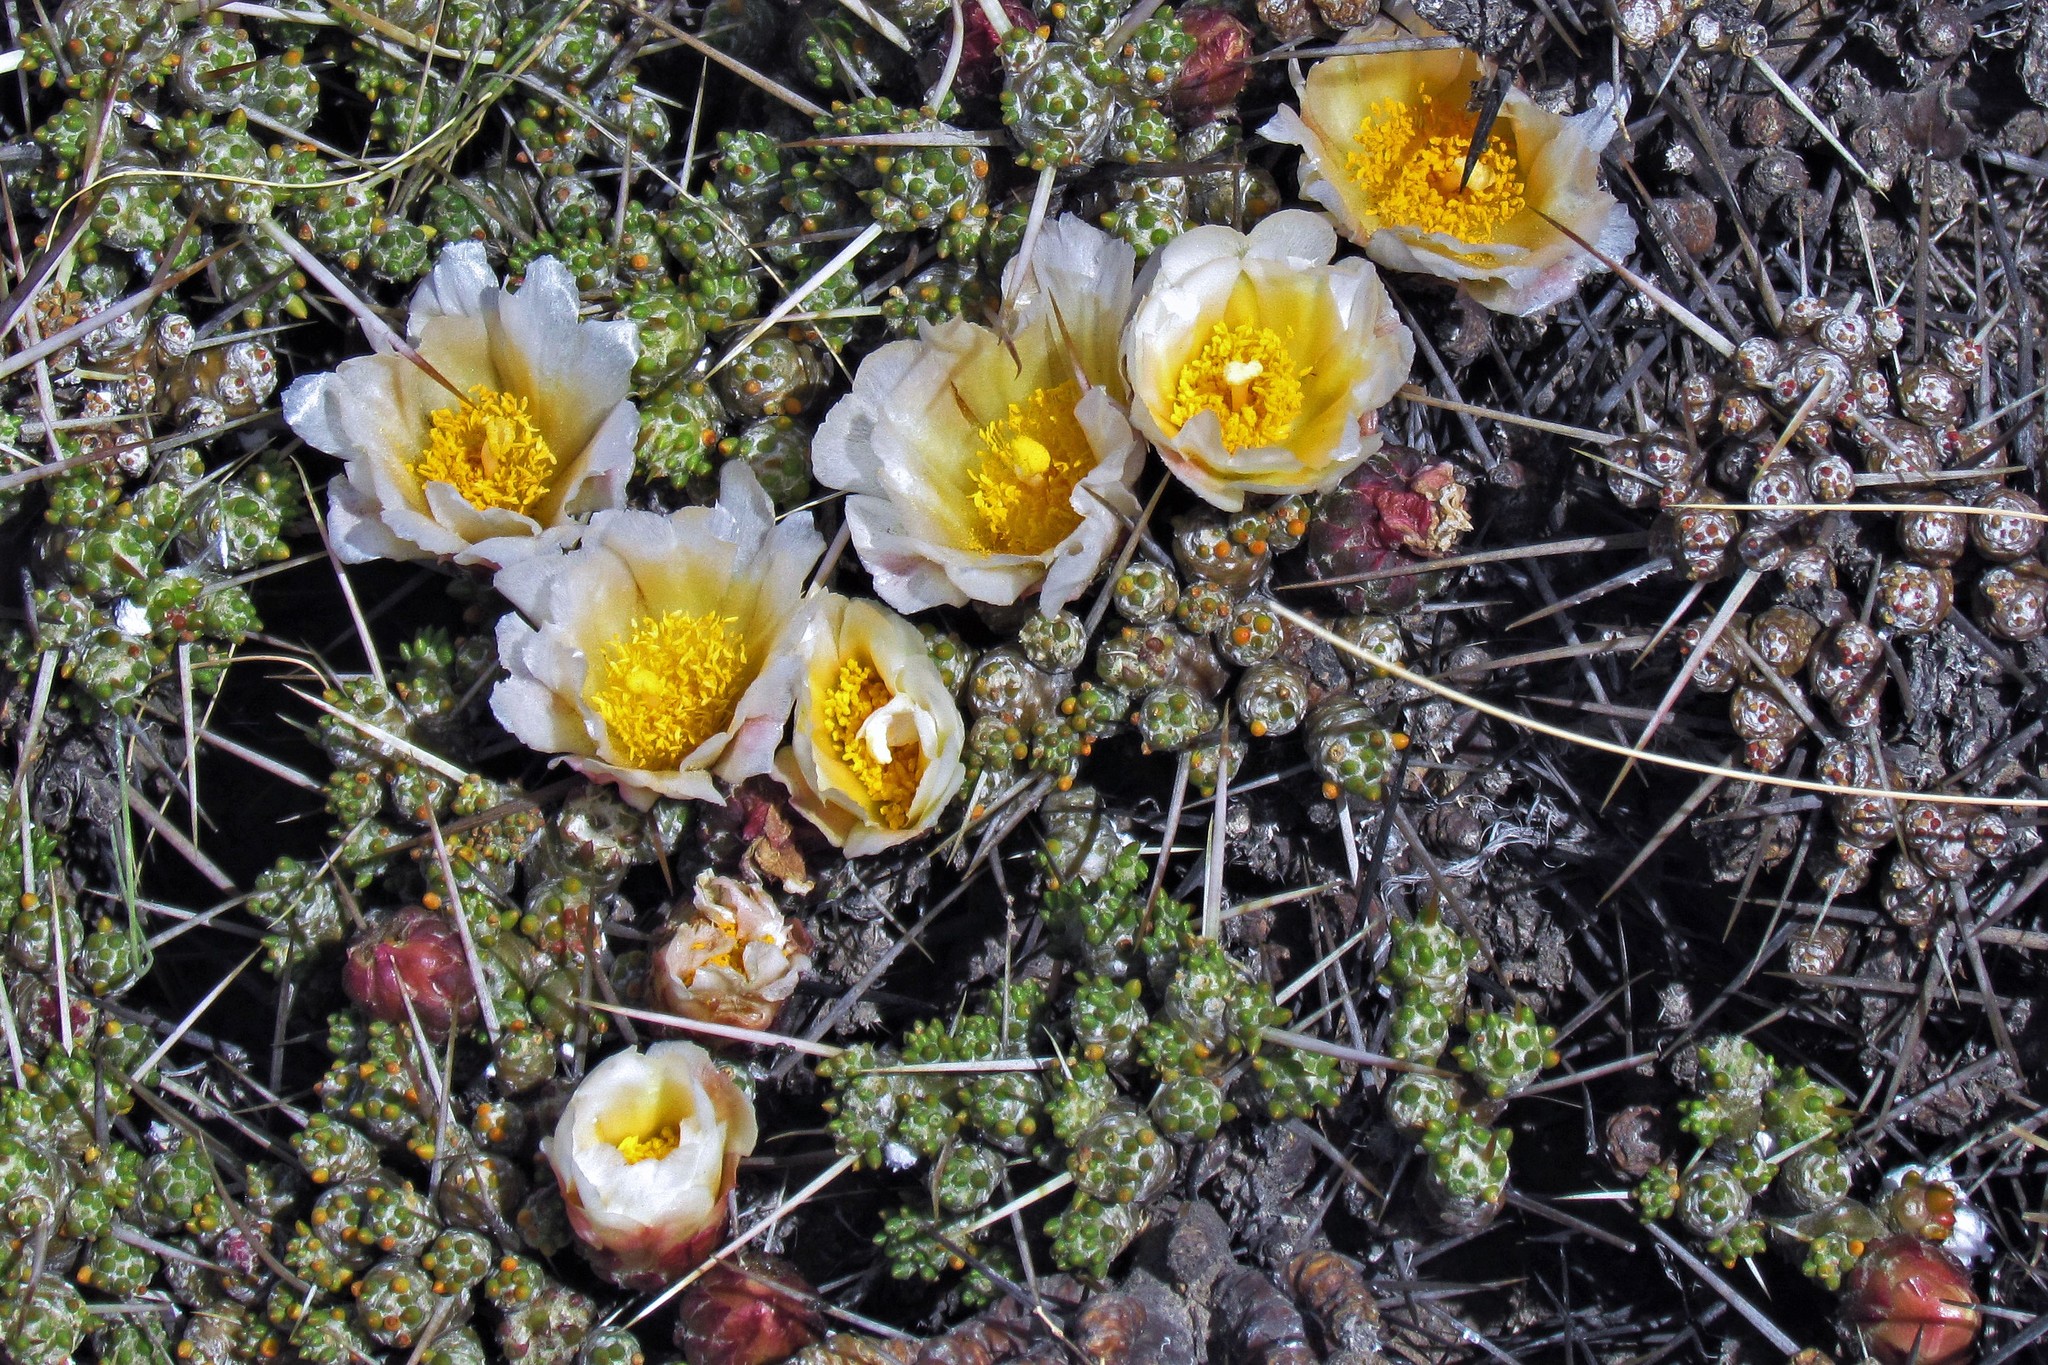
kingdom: Plantae
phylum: Tracheophyta
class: Magnoliopsida
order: Caryophyllales
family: Cactaceae
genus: Maihuenia
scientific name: Maihuenia patagonica
